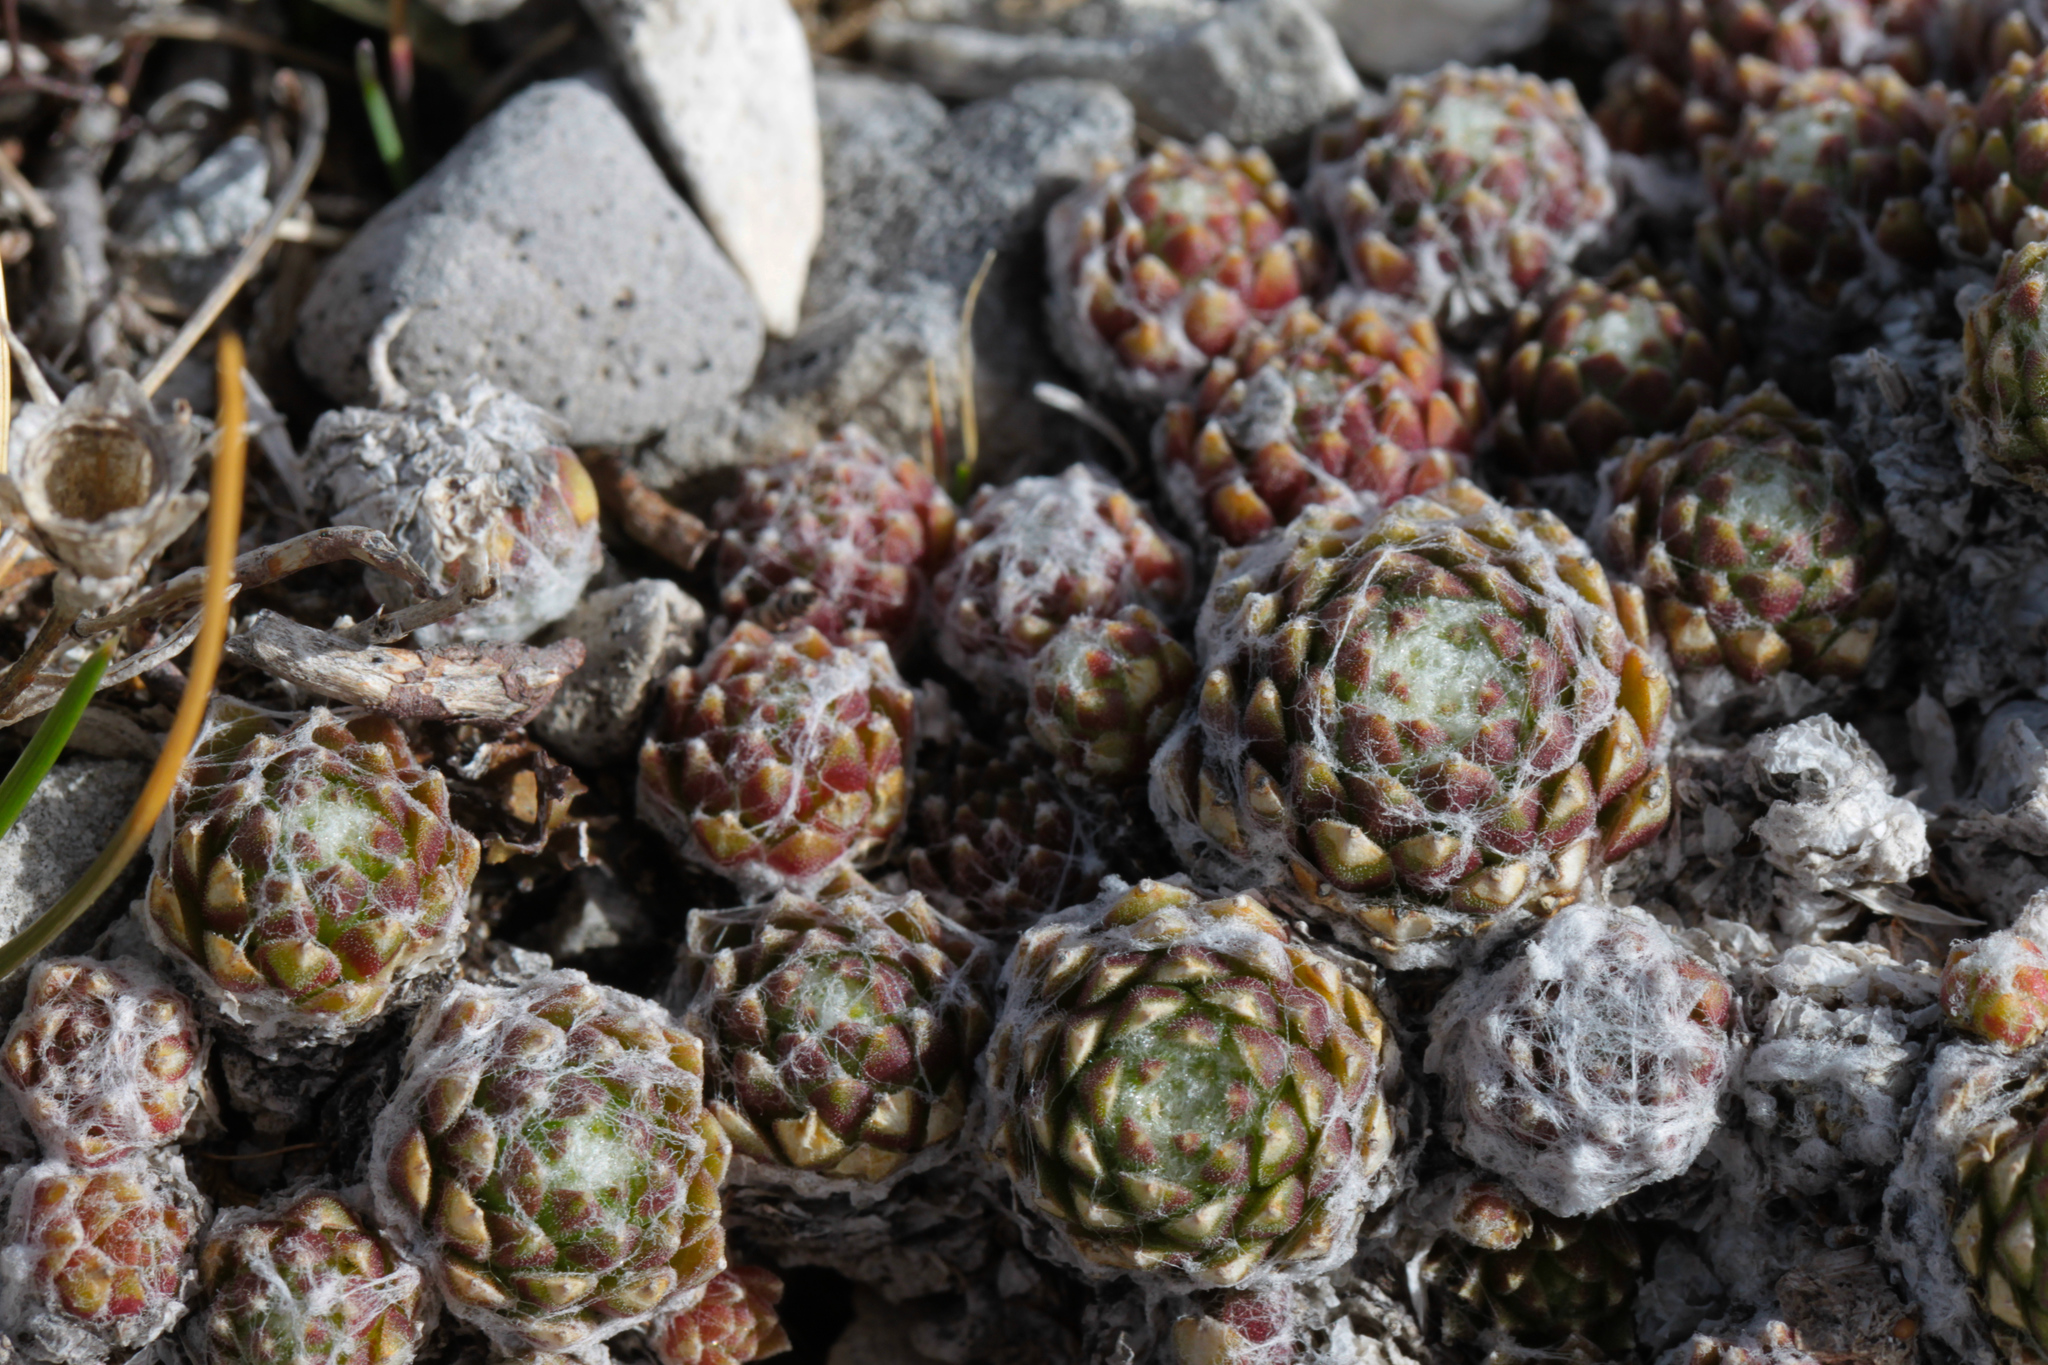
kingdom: Plantae
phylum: Tracheophyta
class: Magnoliopsida
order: Saxifragales
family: Crassulaceae
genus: Sempervivum
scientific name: Sempervivum arachnoideum
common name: Cobweb house-leek
